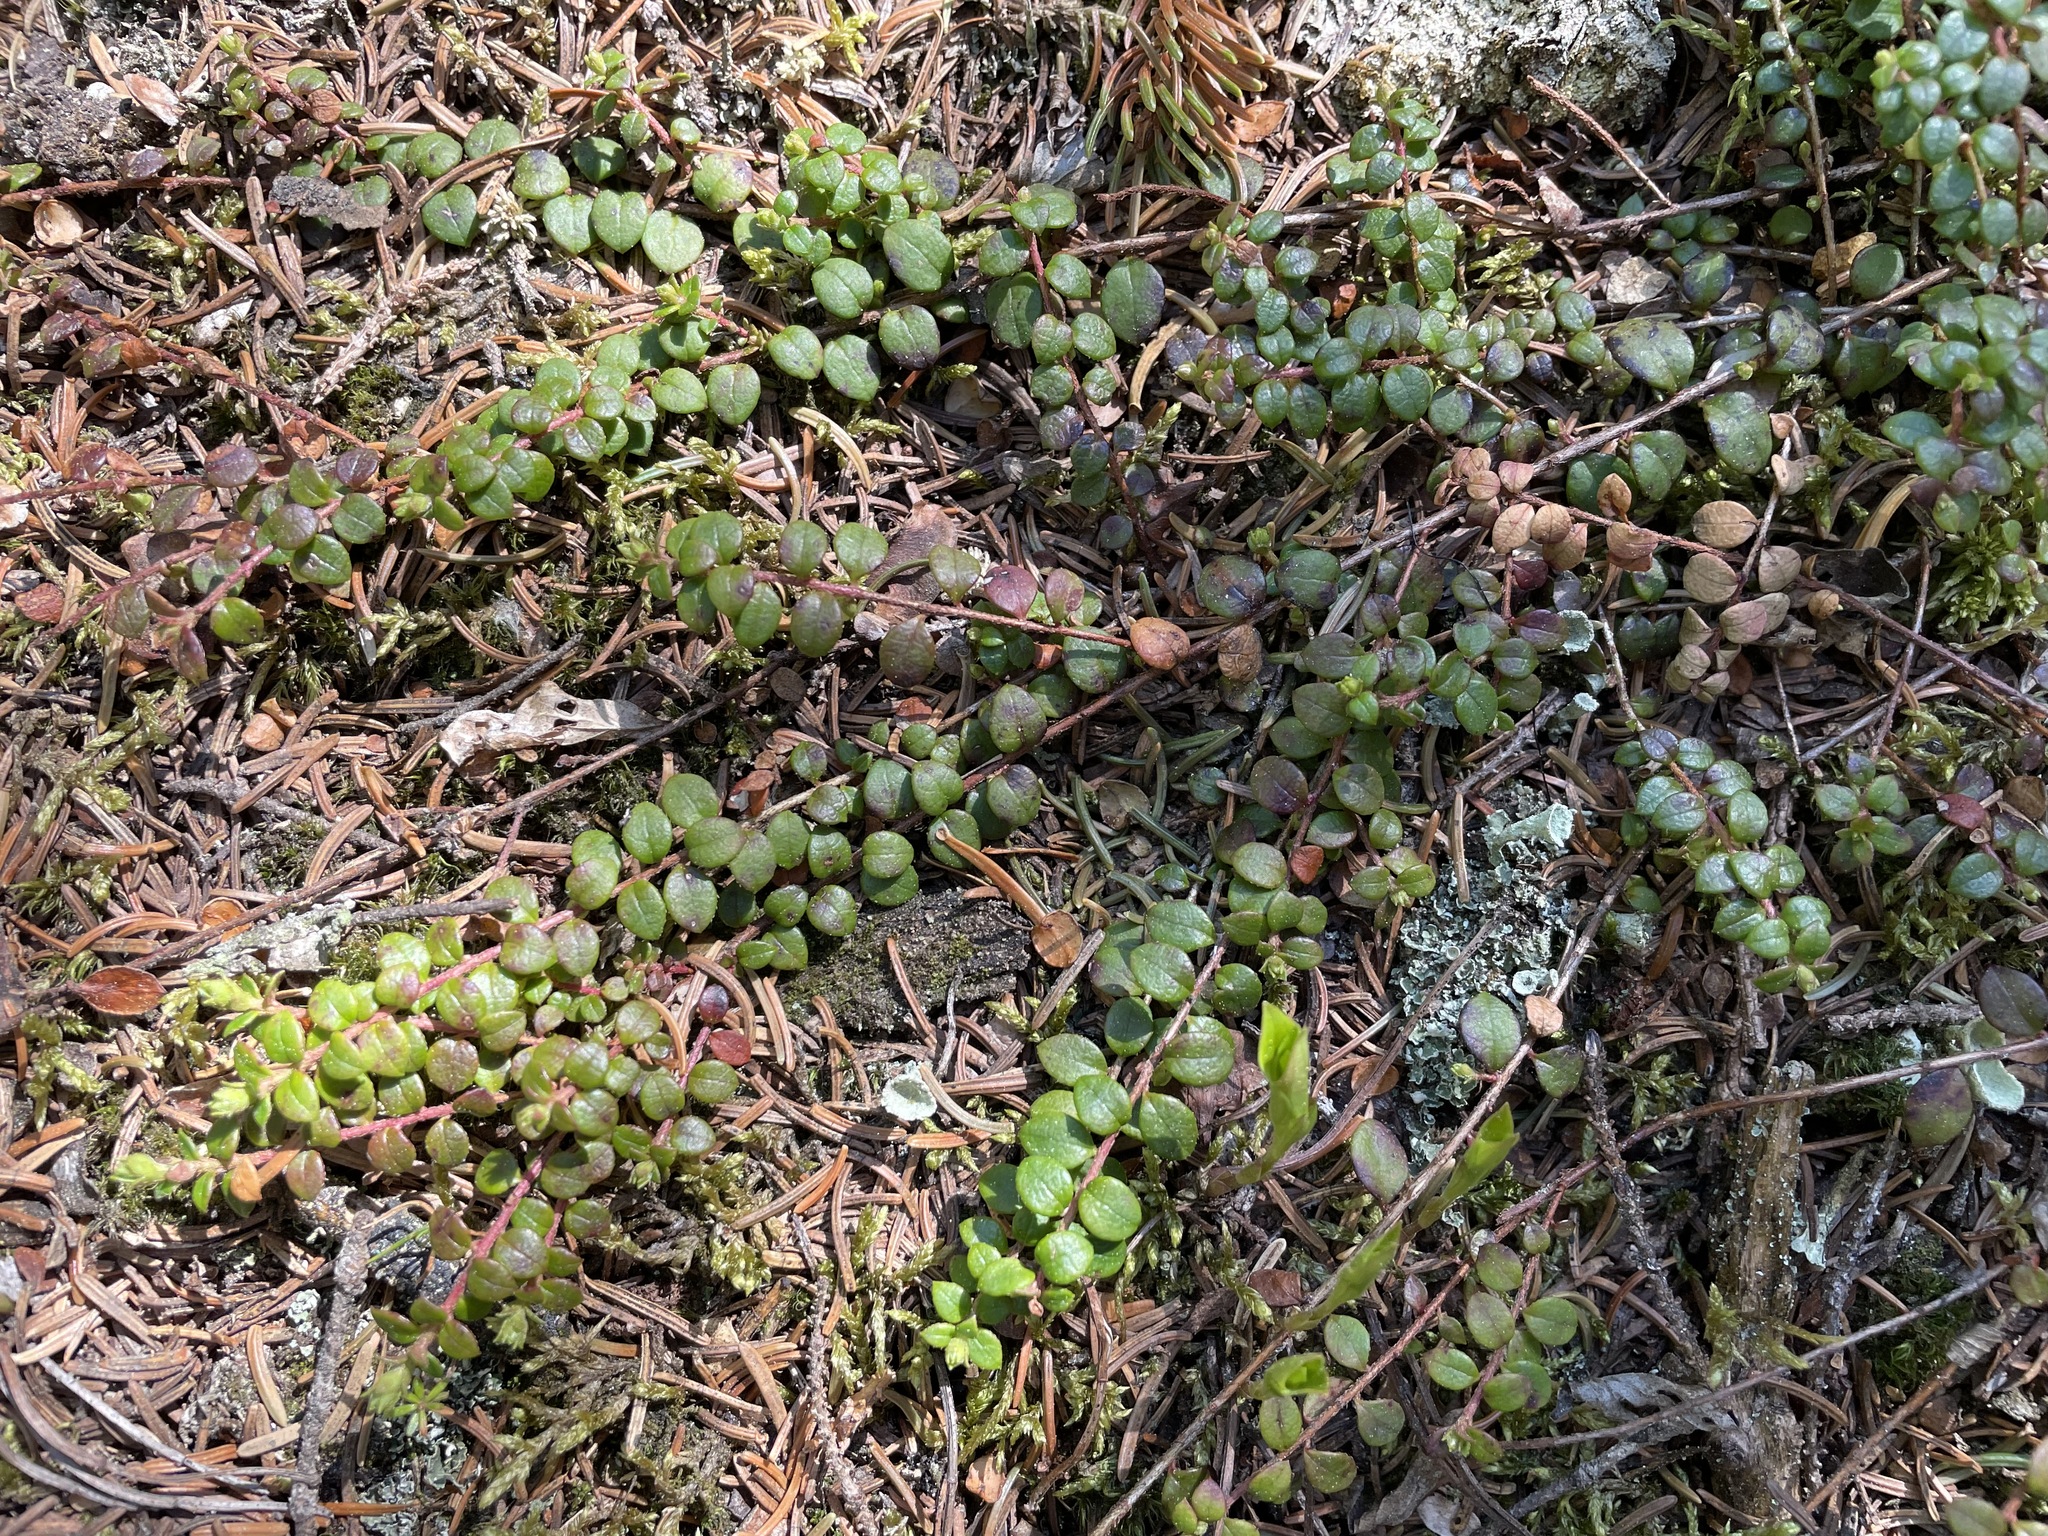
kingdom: Plantae
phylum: Tracheophyta
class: Magnoliopsida
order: Ericales
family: Ericaceae
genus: Gaultheria
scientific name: Gaultheria hispidula
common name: Cancer wintergreen
